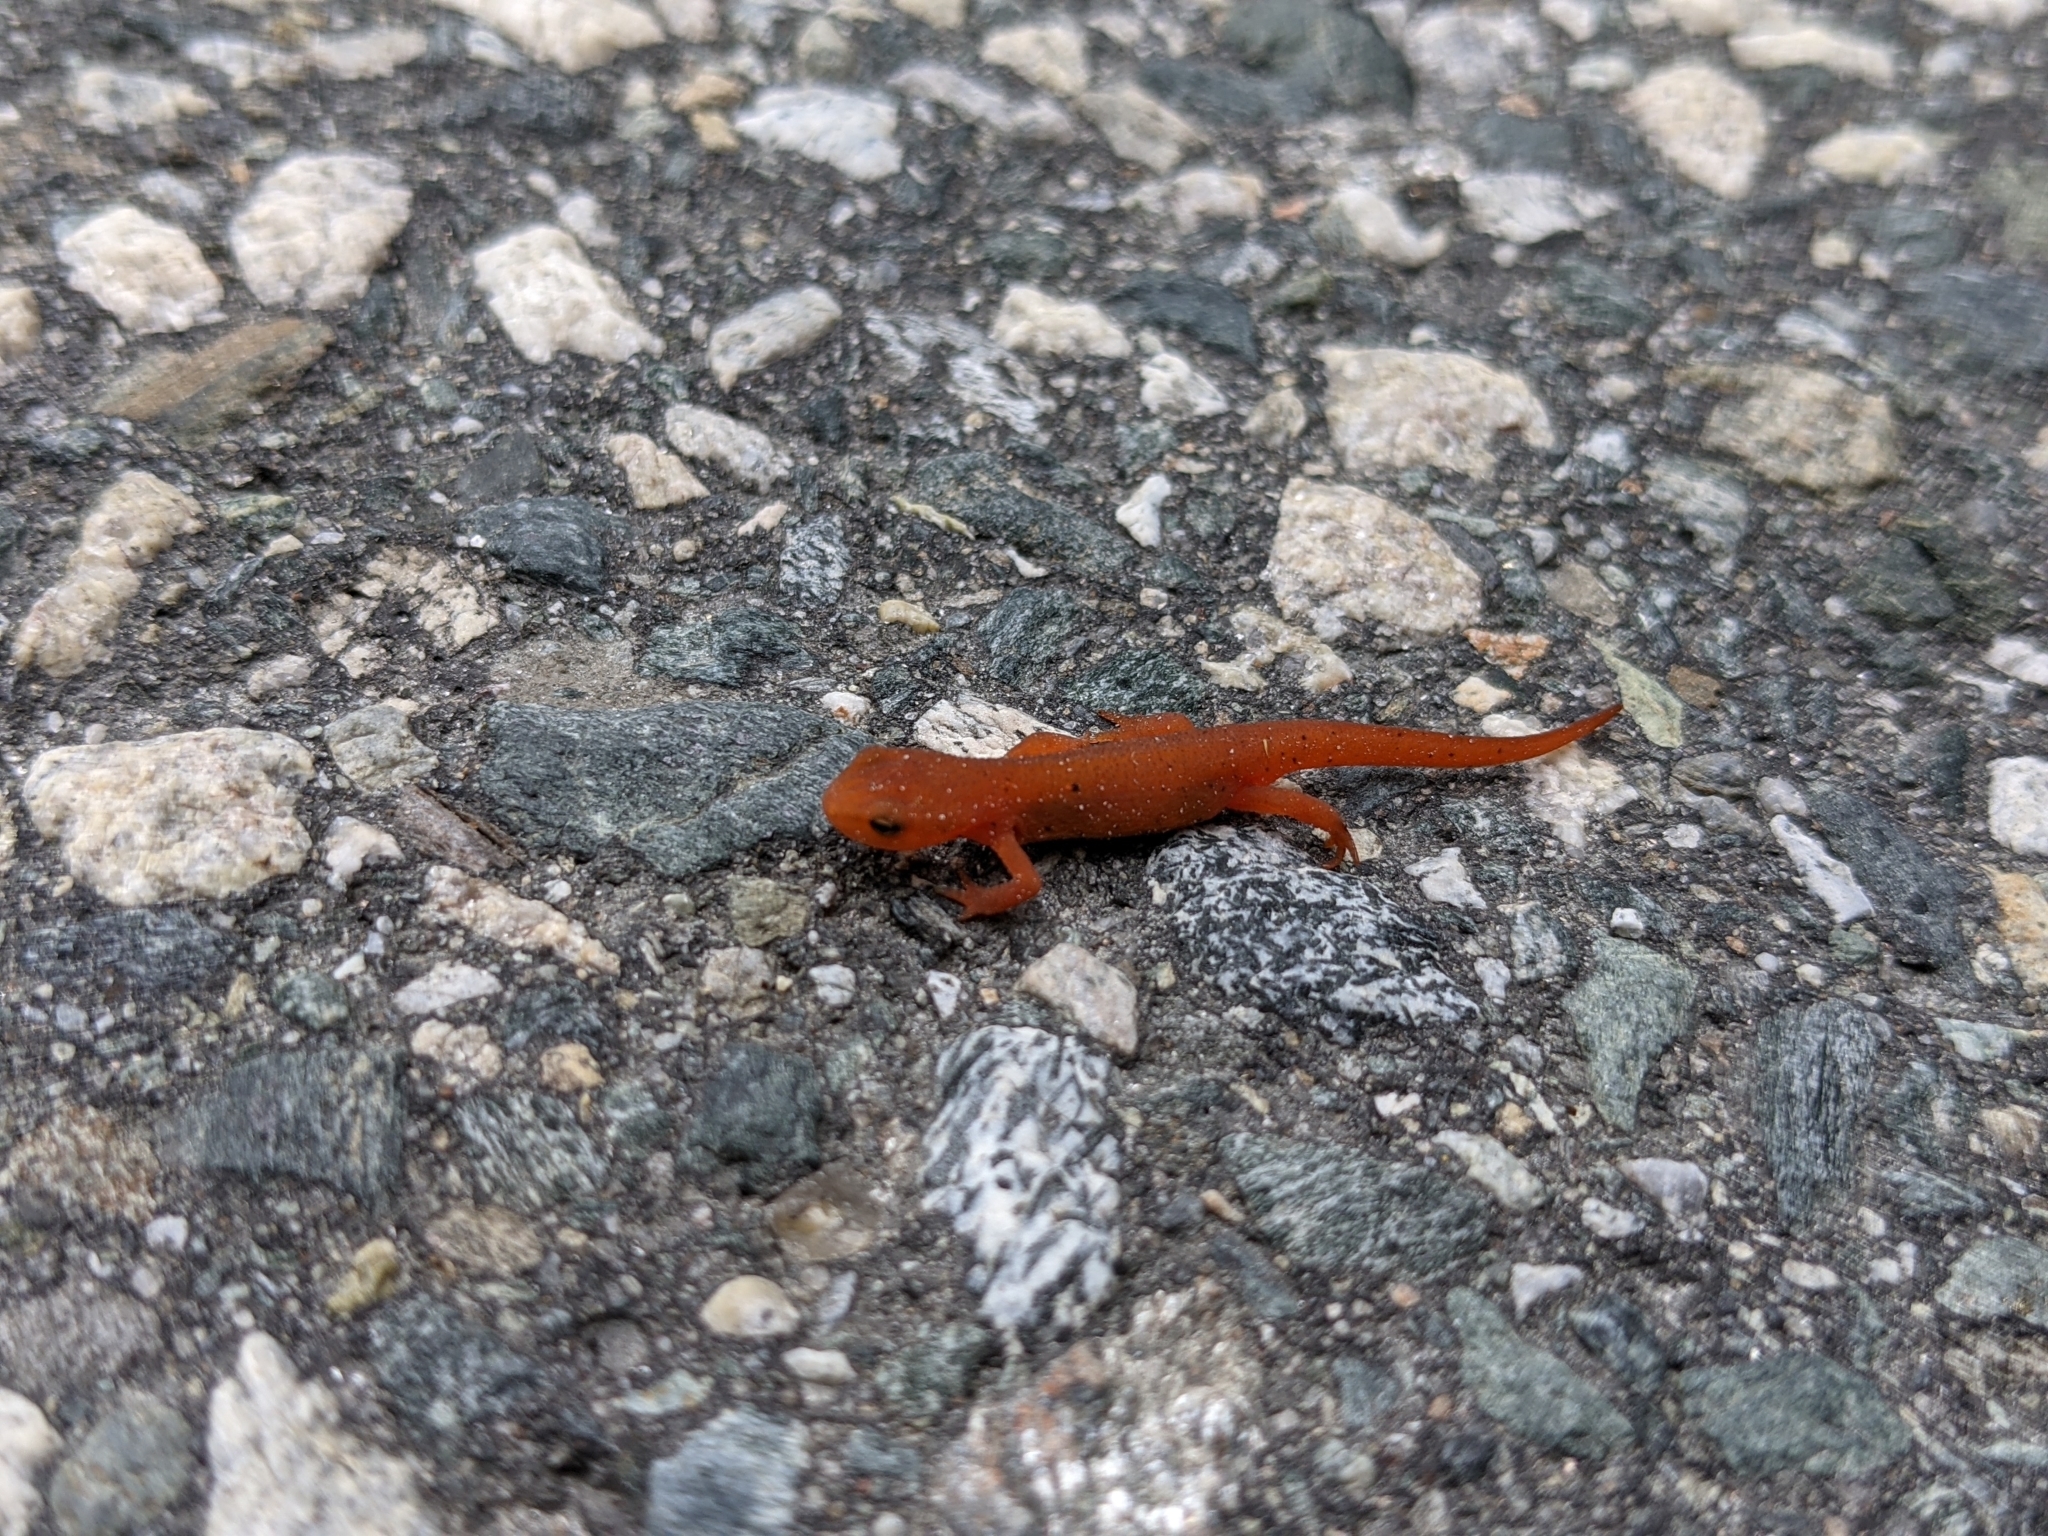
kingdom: Animalia
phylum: Chordata
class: Amphibia
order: Caudata
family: Salamandridae
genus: Notophthalmus
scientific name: Notophthalmus viridescens
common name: Eastern newt
